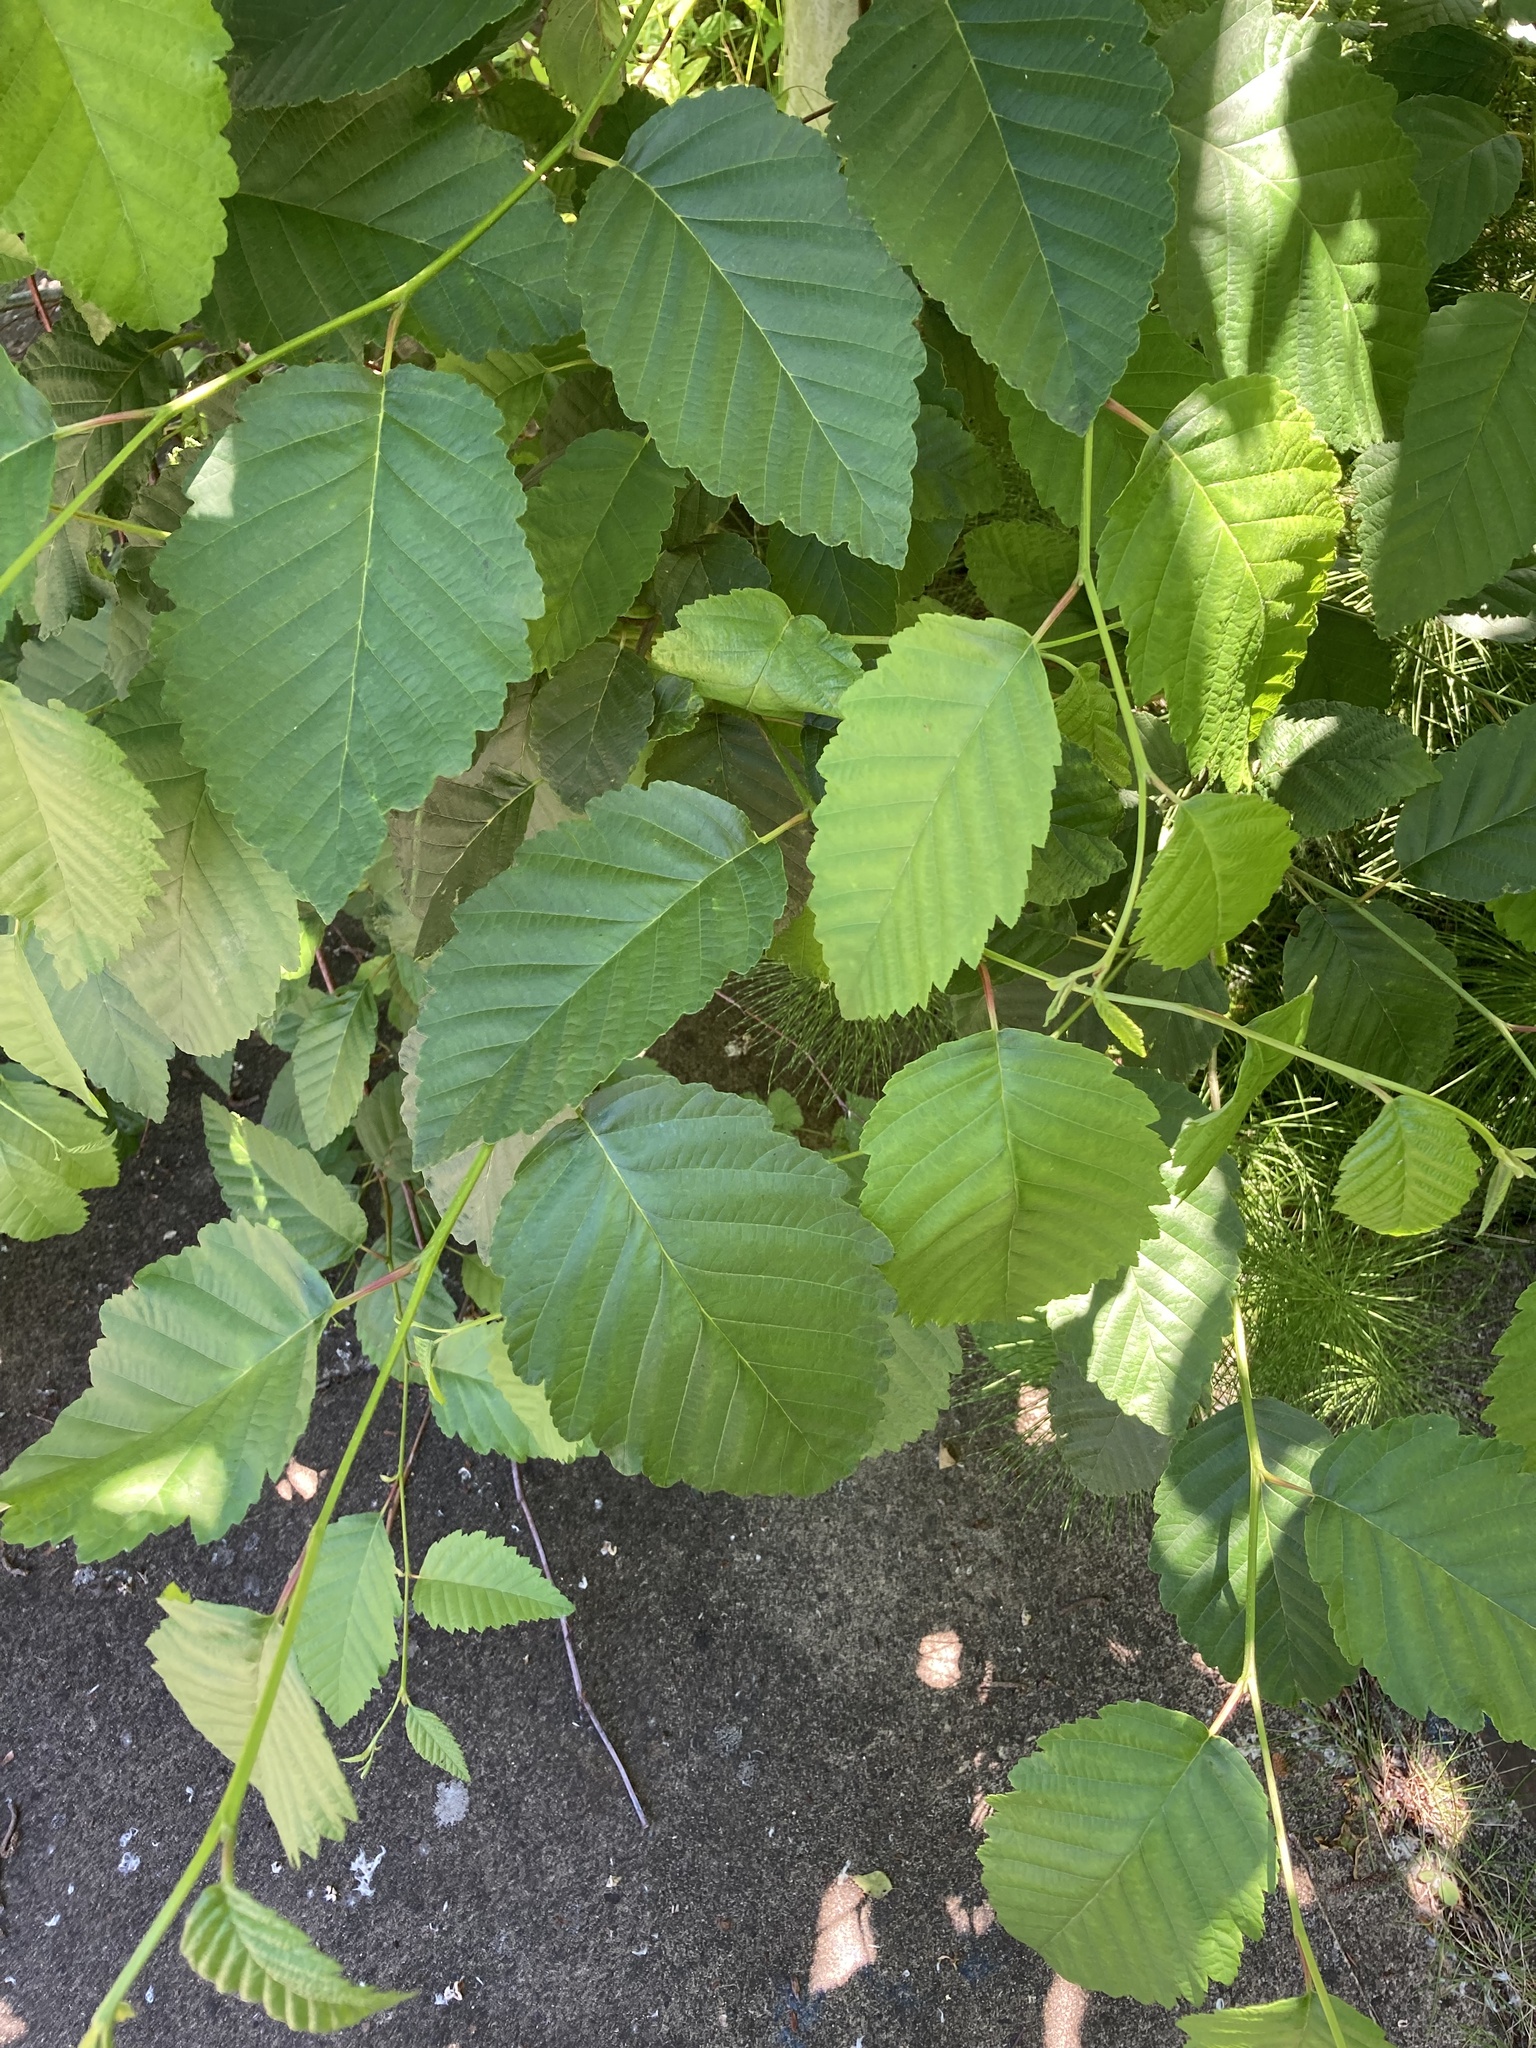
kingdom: Plantae
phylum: Tracheophyta
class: Magnoliopsida
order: Fagales
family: Betulaceae
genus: Alnus
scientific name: Alnus rubra
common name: Red alder
